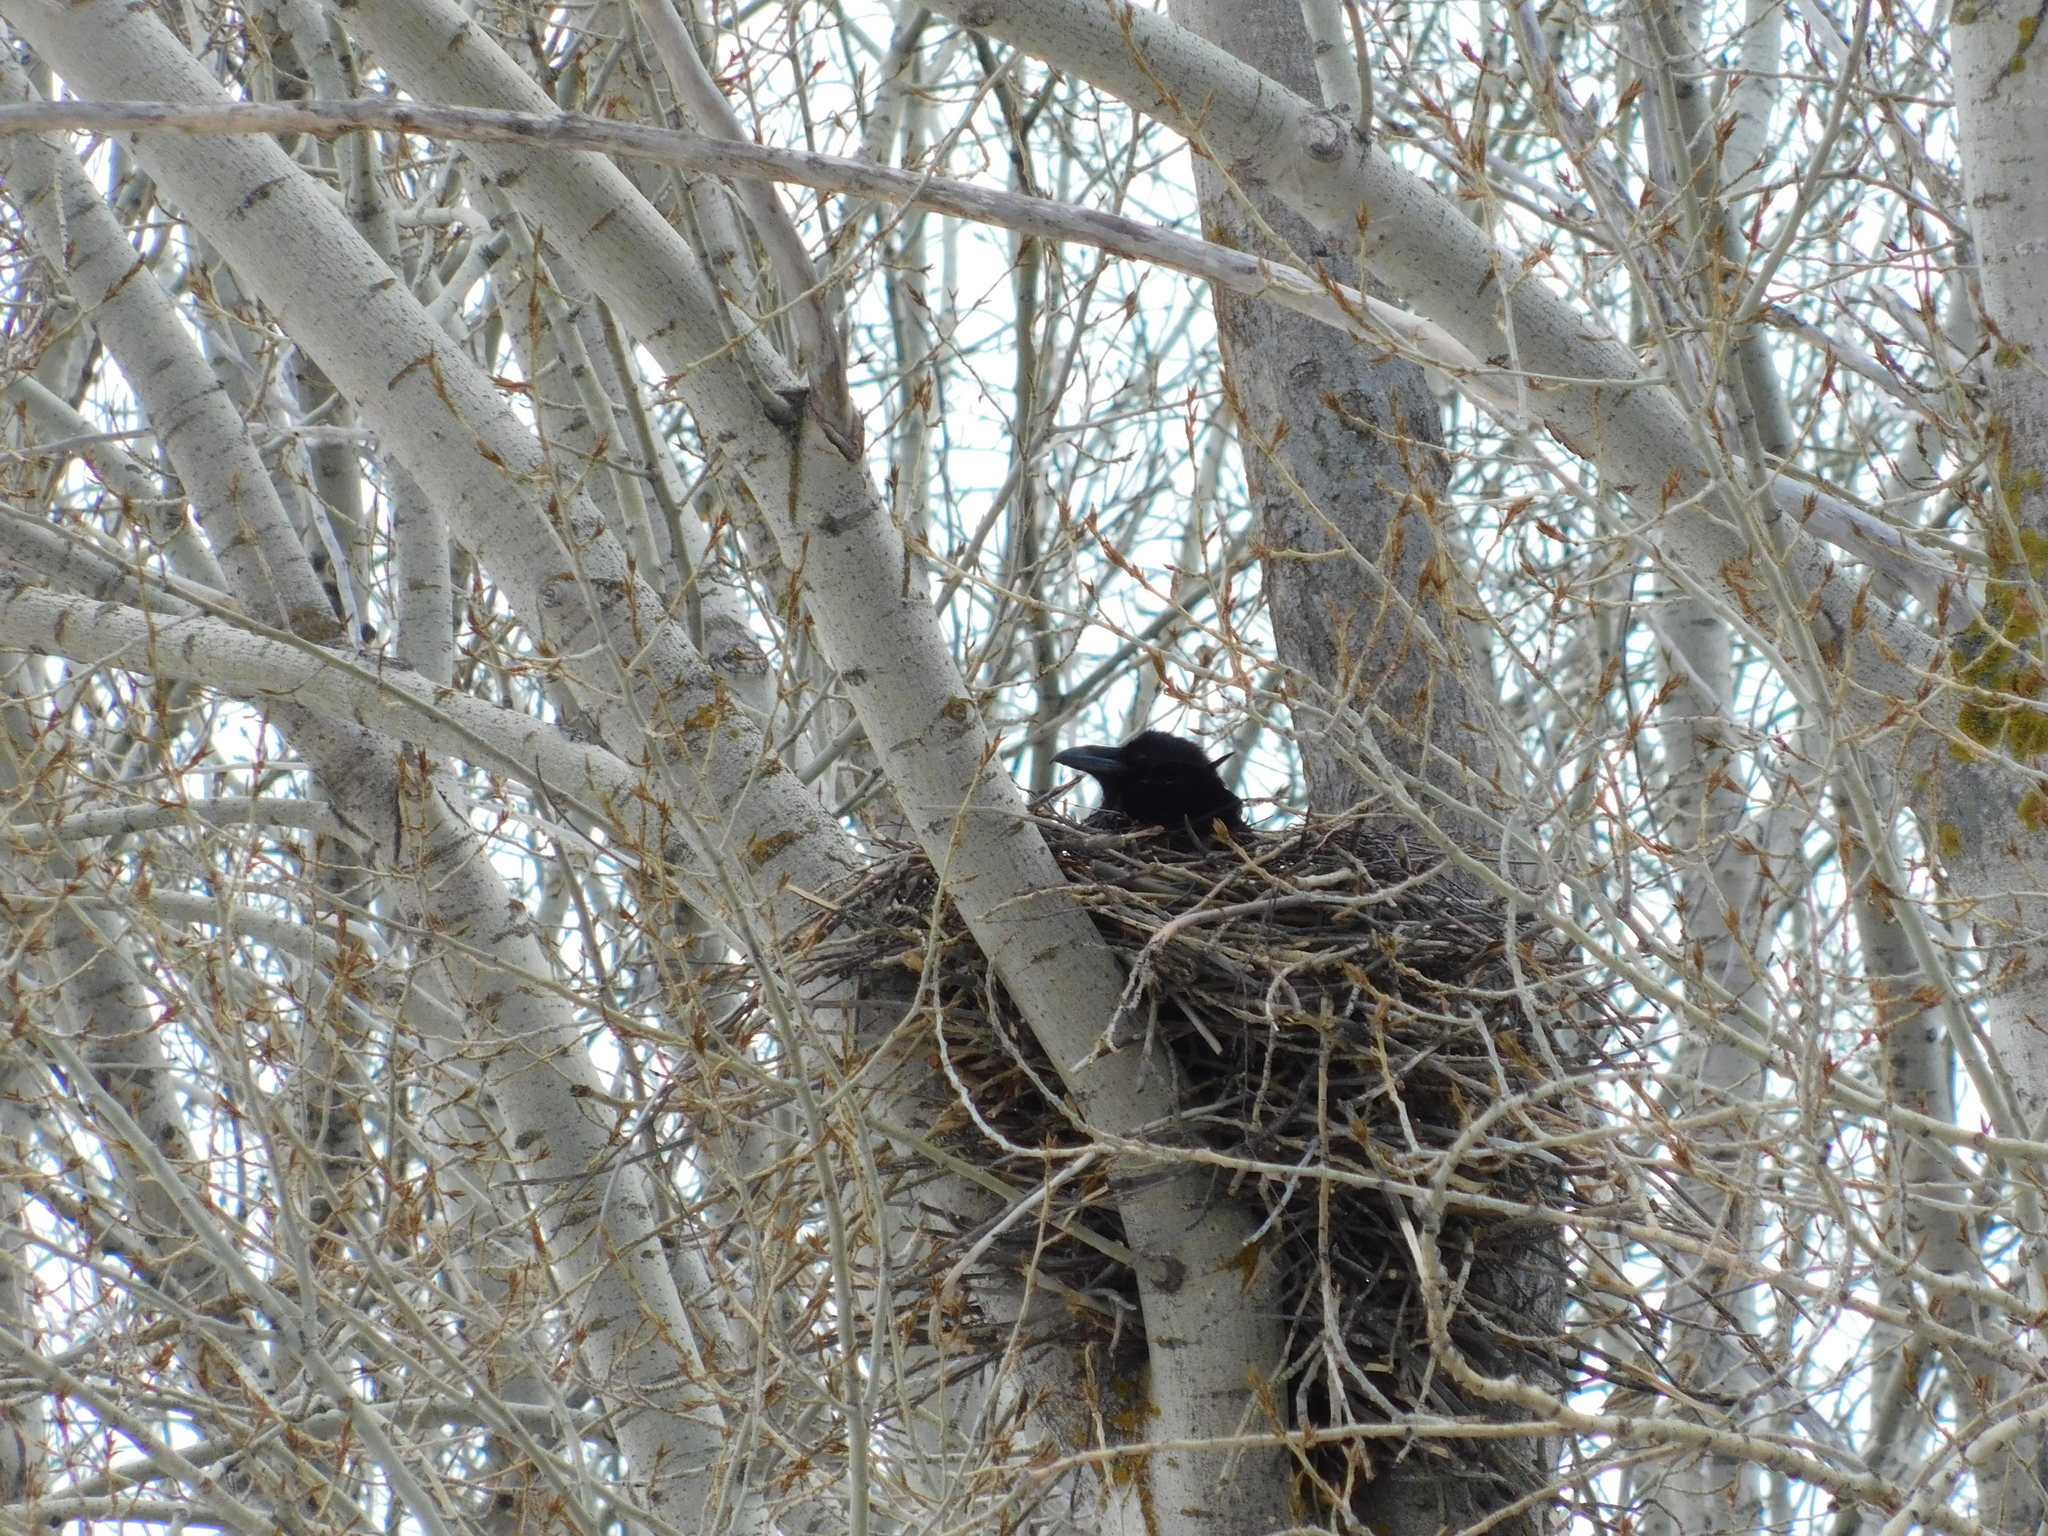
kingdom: Animalia
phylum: Chordata
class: Aves
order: Passeriformes
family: Corvidae
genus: Corvus
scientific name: Corvus corax
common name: Common raven
